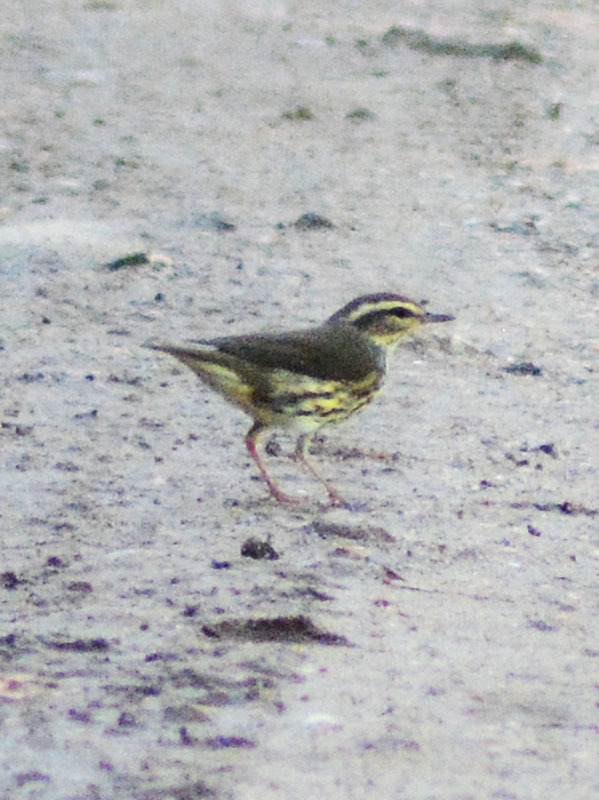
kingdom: Animalia
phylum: Chordata
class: Aves
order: Passeriformes
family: Parulidae
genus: Parkesia
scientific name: Parkesia noveboracensis
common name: Northern waterthrush
